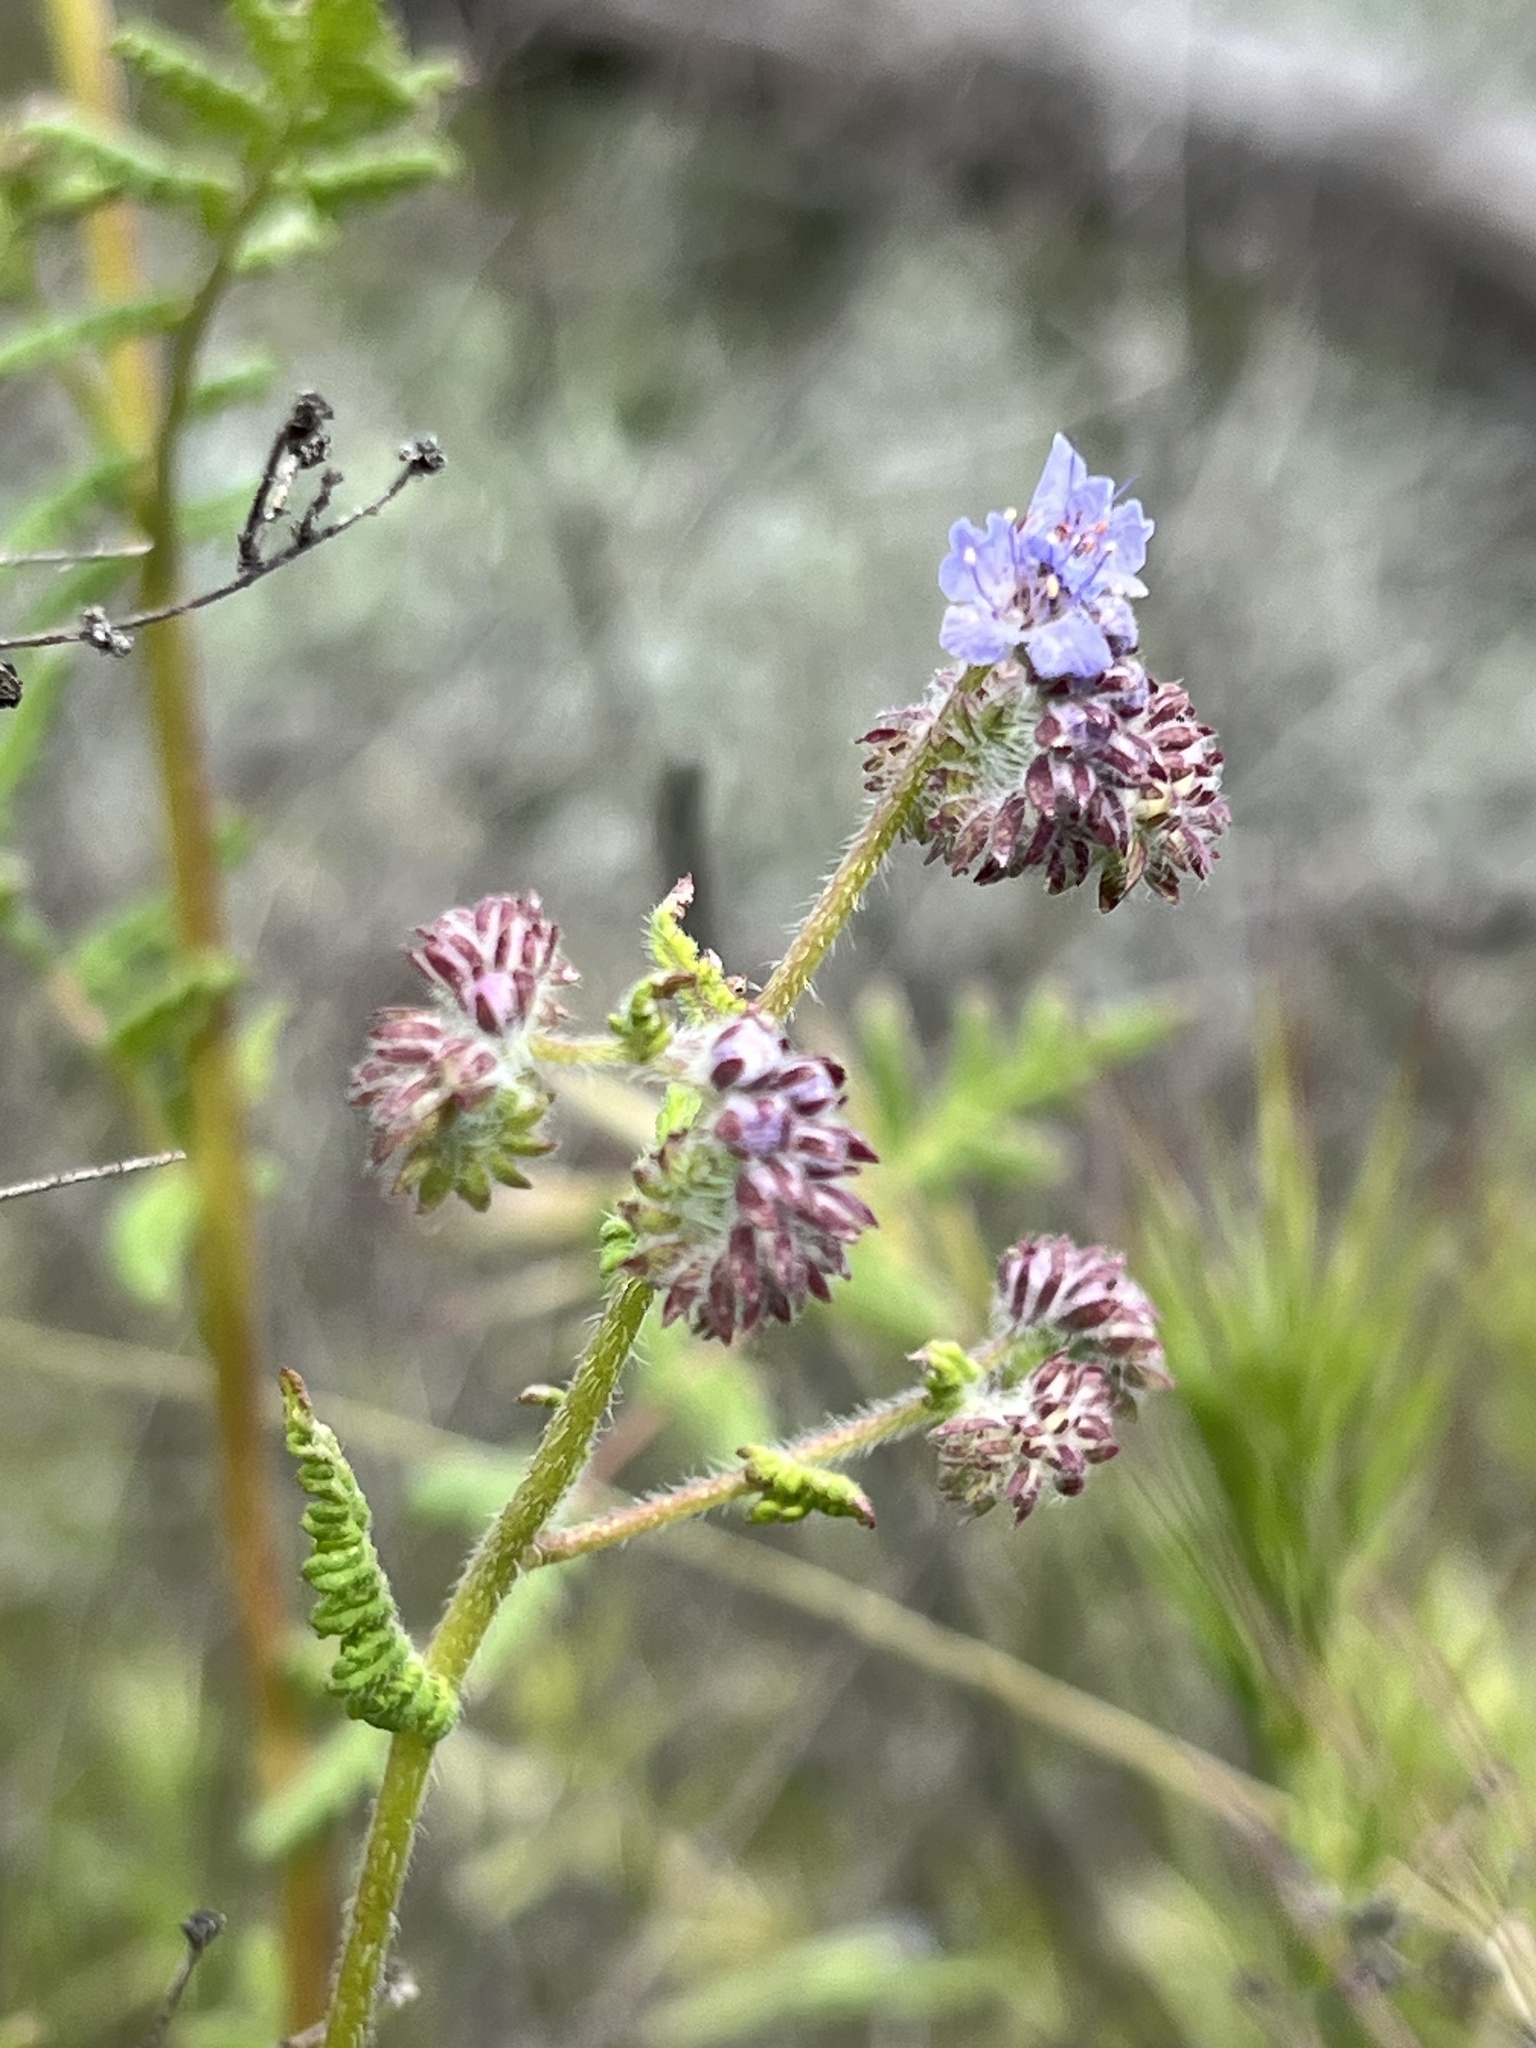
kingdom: Plantae
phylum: Tracheophyta
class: Magnoliopsida
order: Boraginales
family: Hydrophyllaceae
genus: Phacelia
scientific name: Phacelia distans
